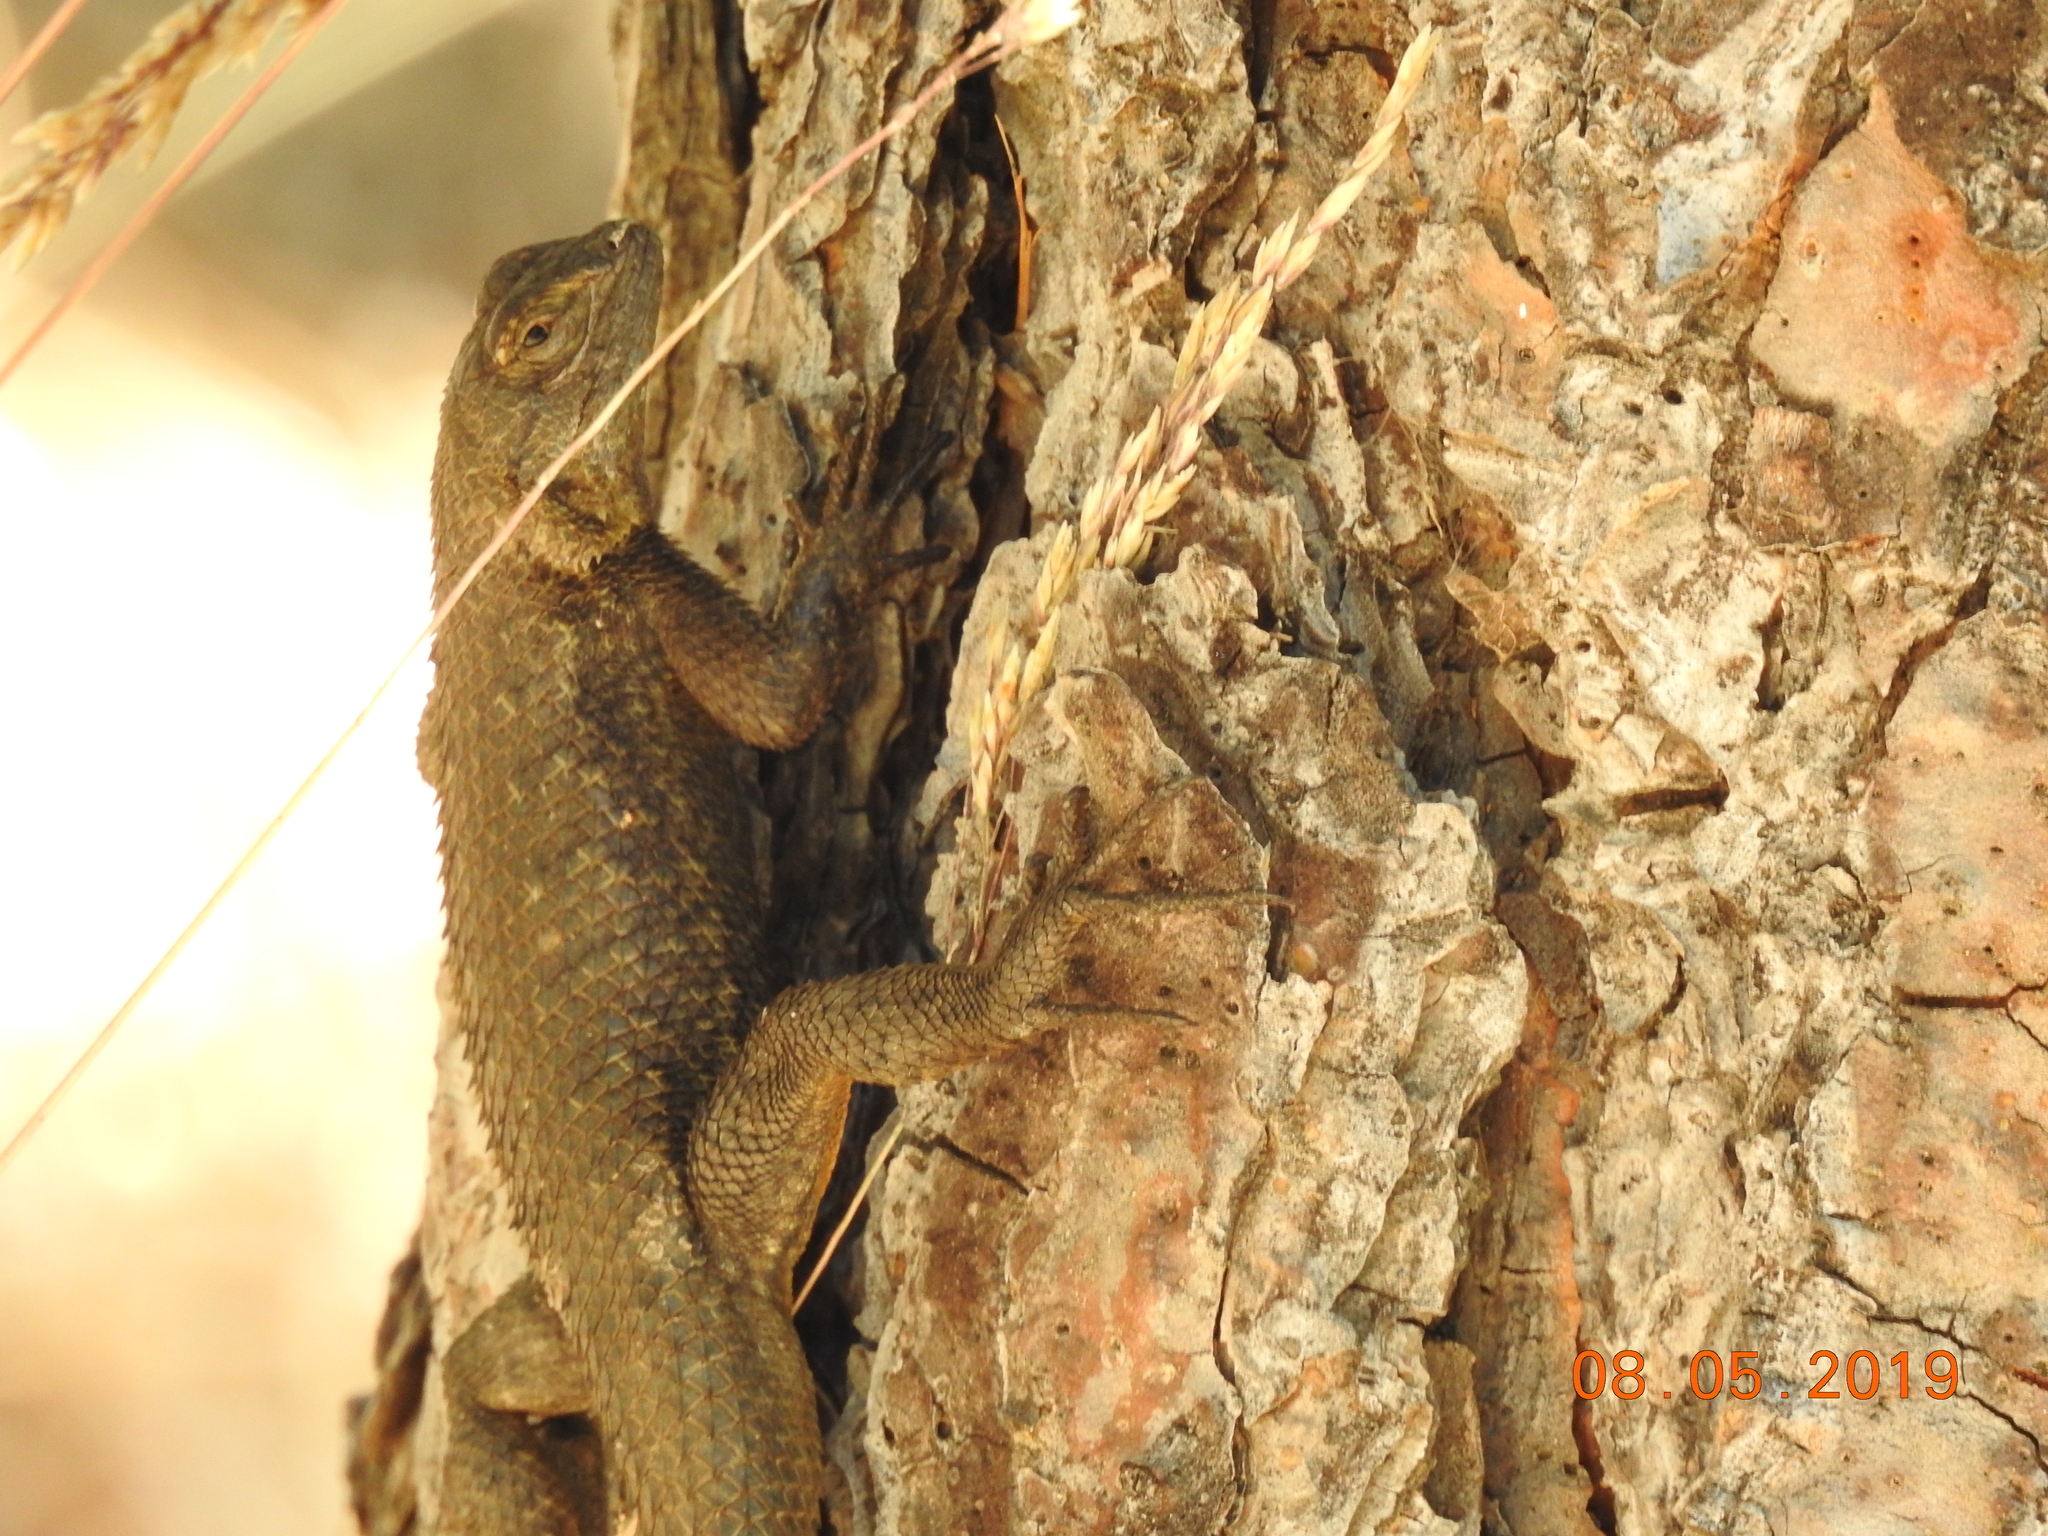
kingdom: Animalia
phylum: Chordata
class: Squamata
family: Phrynosomatidae
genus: Sceloporus
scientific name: Sceloporus occidentalis
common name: Western fence lizard
